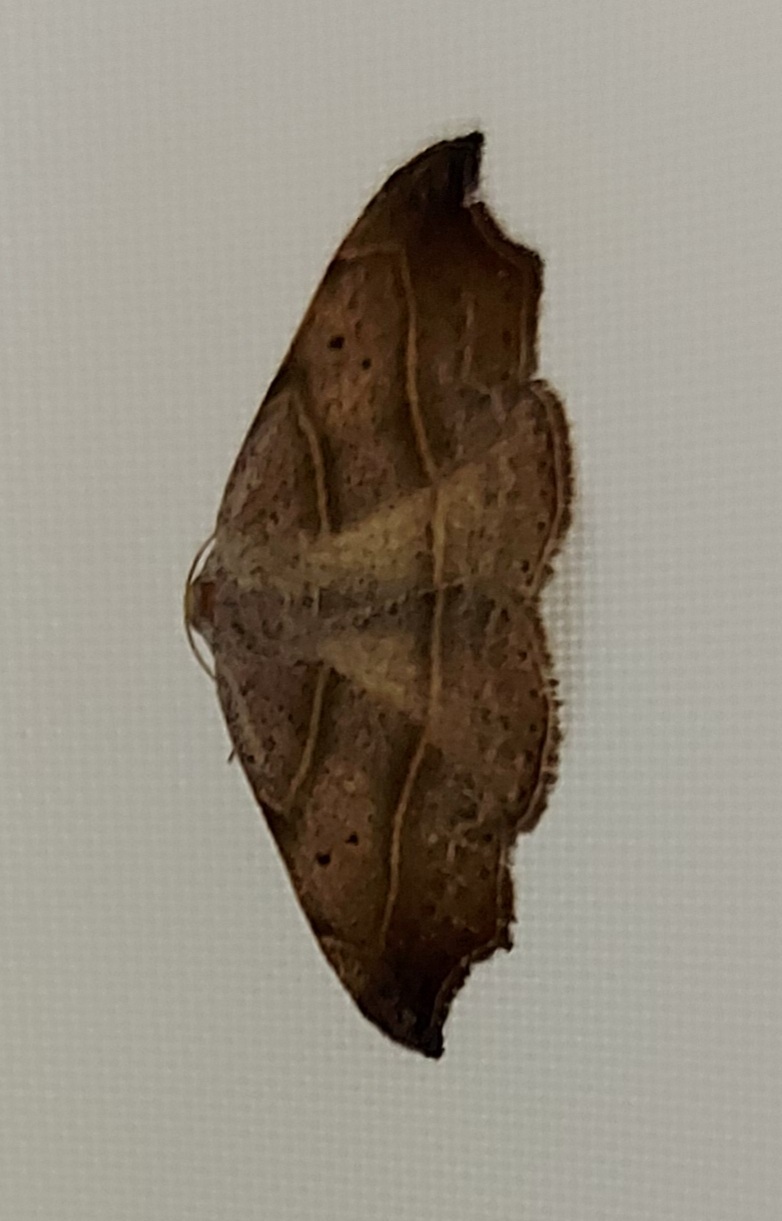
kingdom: Animalia
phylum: Arthropoda
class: Insecta
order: Lepidoptera
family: Erebidae
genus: Laspeyria
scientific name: Laspeyria flexula
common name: Beautiful hook-tip
